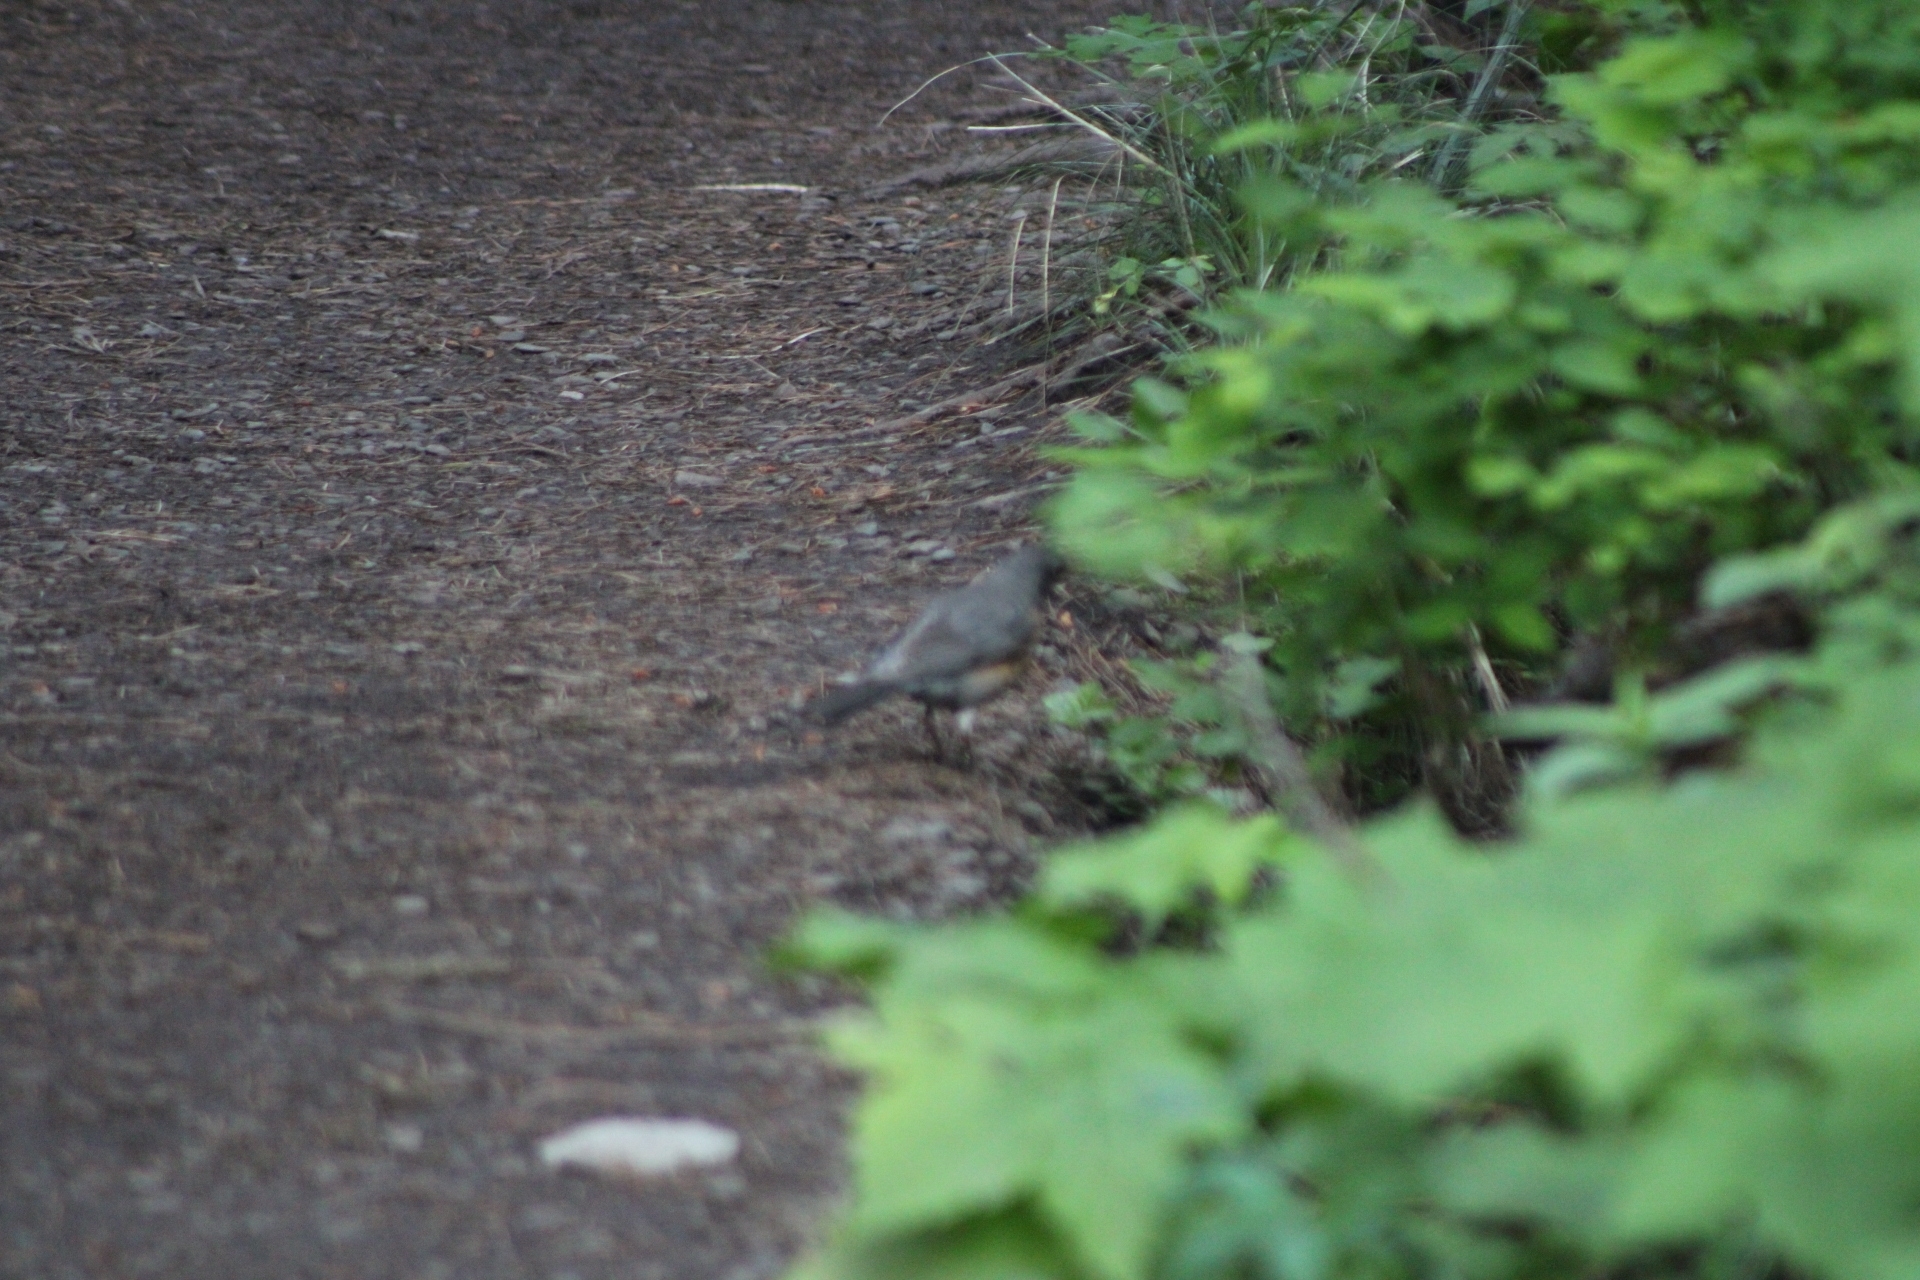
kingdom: Animalia
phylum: Chordata
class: Aves
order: Passeriformes
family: Turdidae
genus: Turdus
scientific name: Turdus migratorius
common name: American robin
